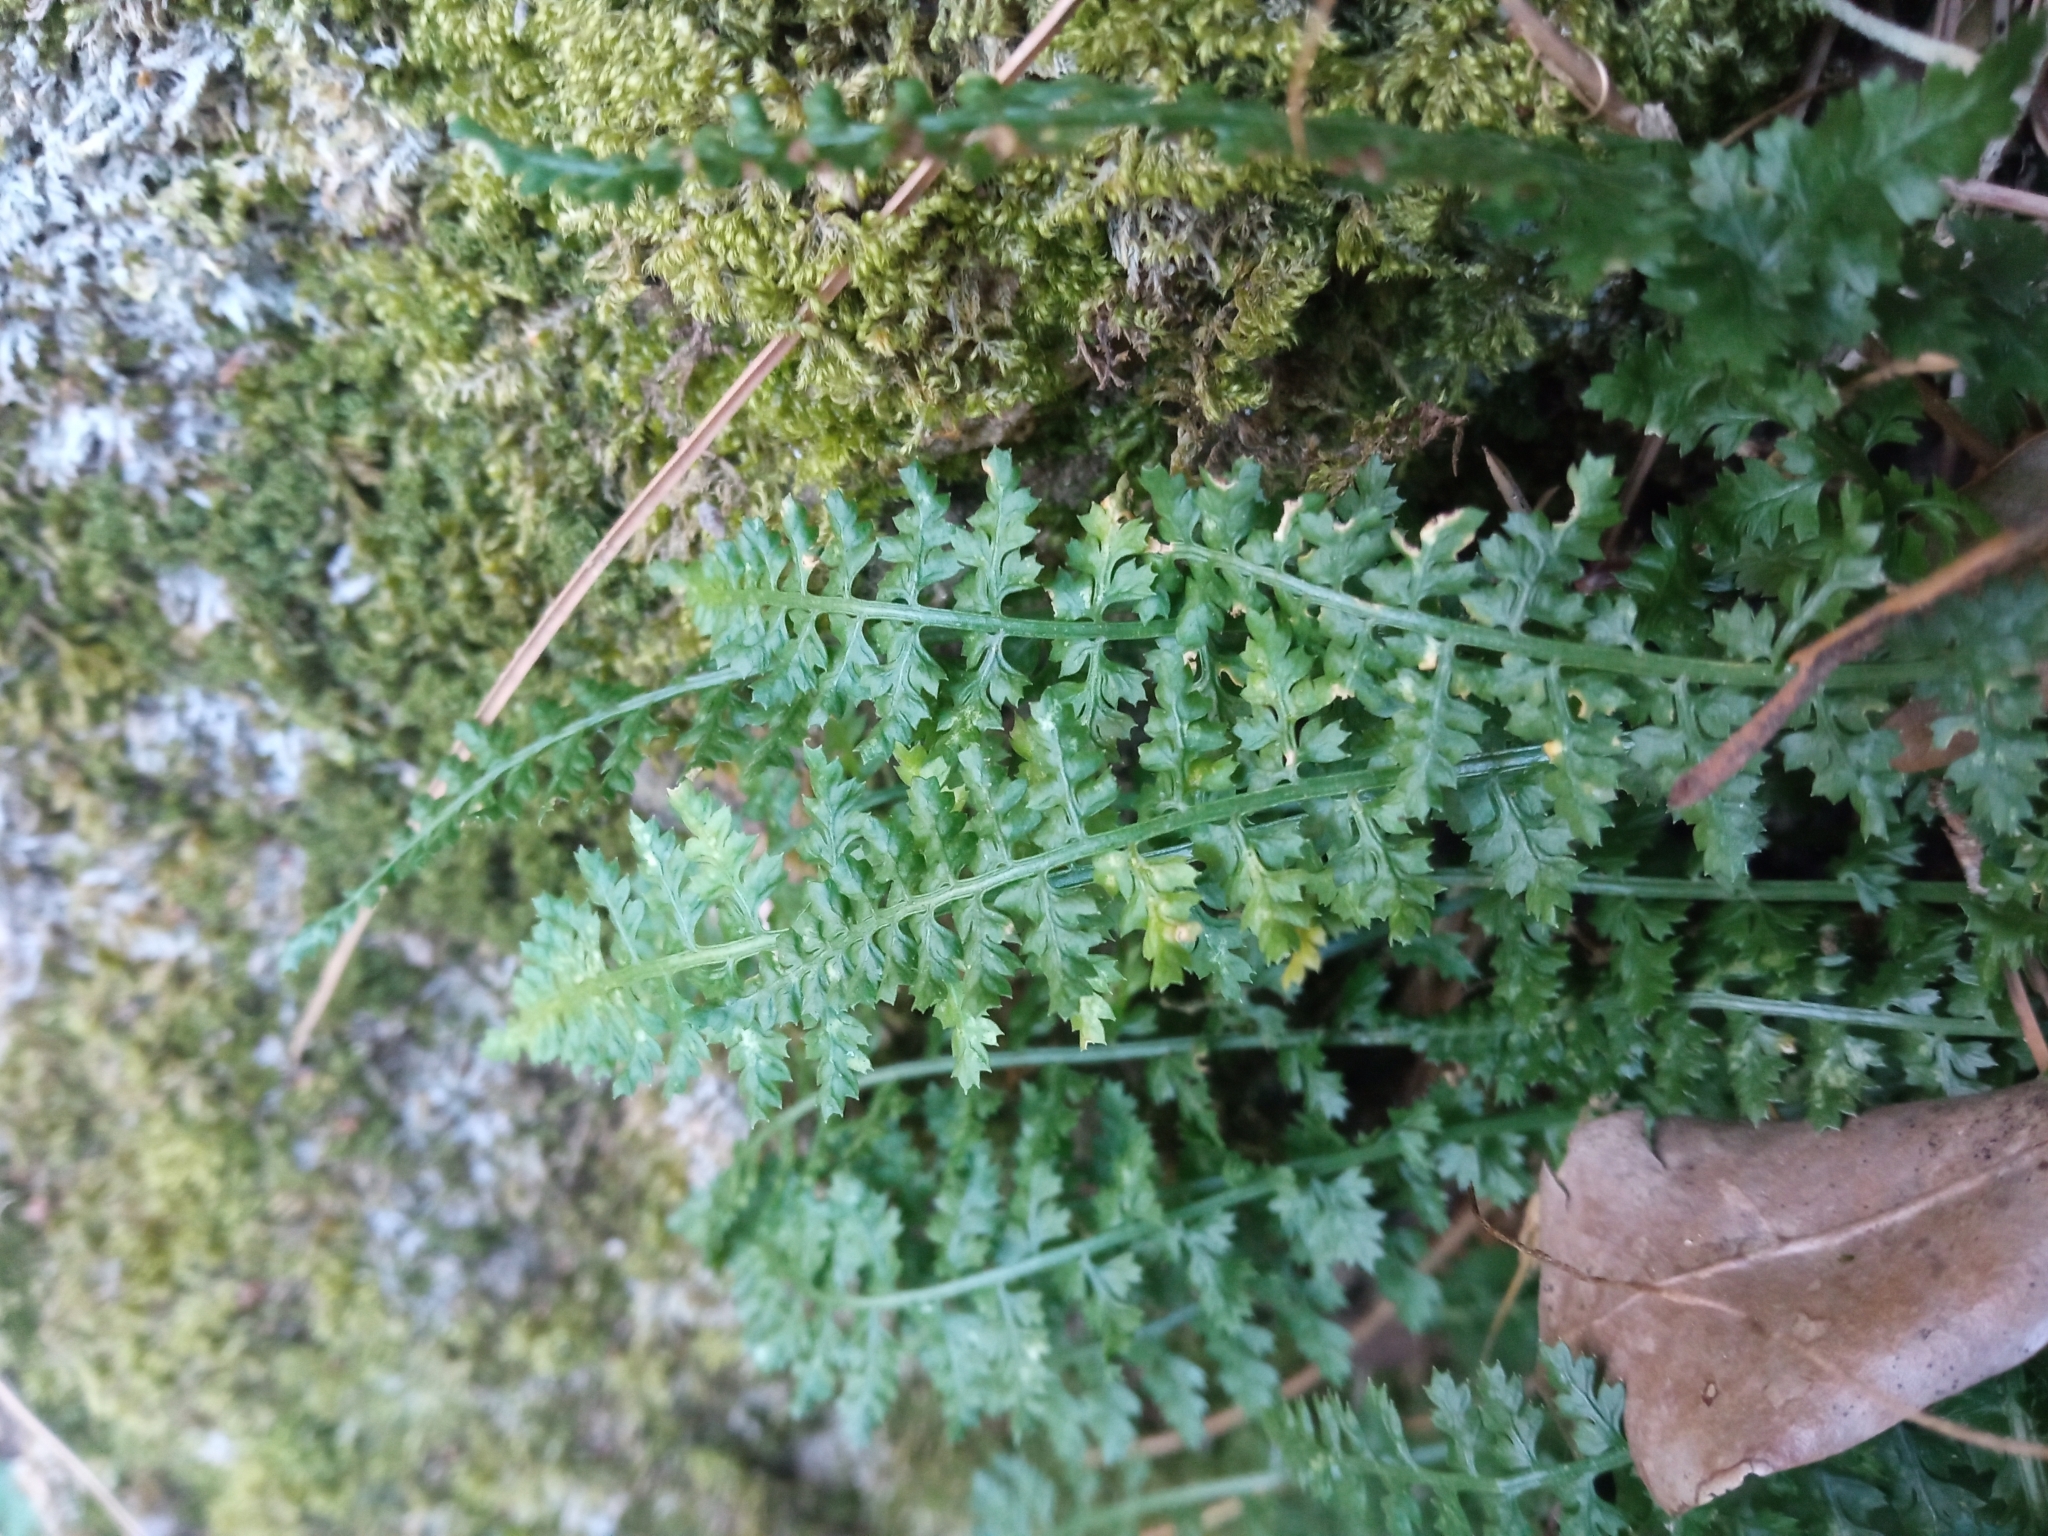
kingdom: Plantae
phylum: Tracheophyta
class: Polypodiopsida
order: Polypodiales
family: Aspleniaceae
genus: Asplenium
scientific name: Asplenium fontanum
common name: Fountain spleenwort
